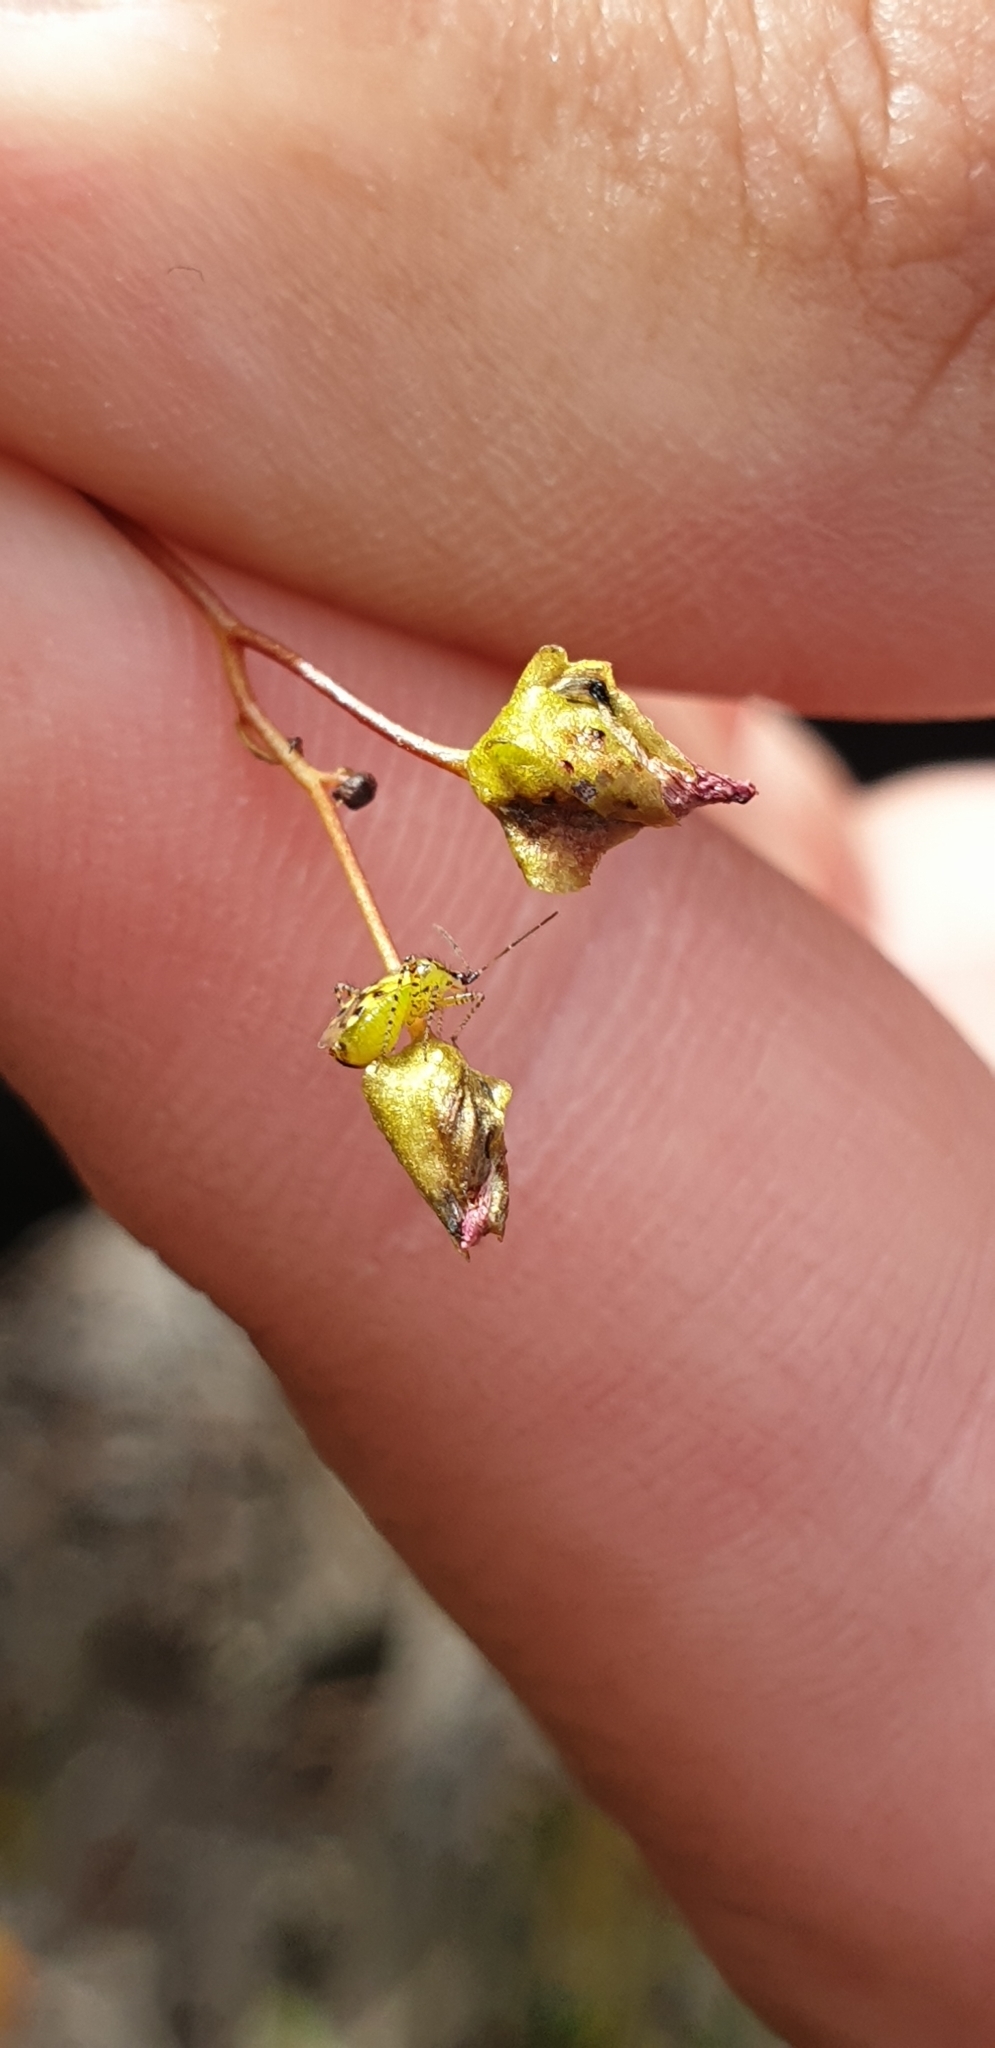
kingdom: Animalia
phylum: Arthropoda
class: Insecta
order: Hemiptera
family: Miridae
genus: Setocoris
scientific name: Setocoris
